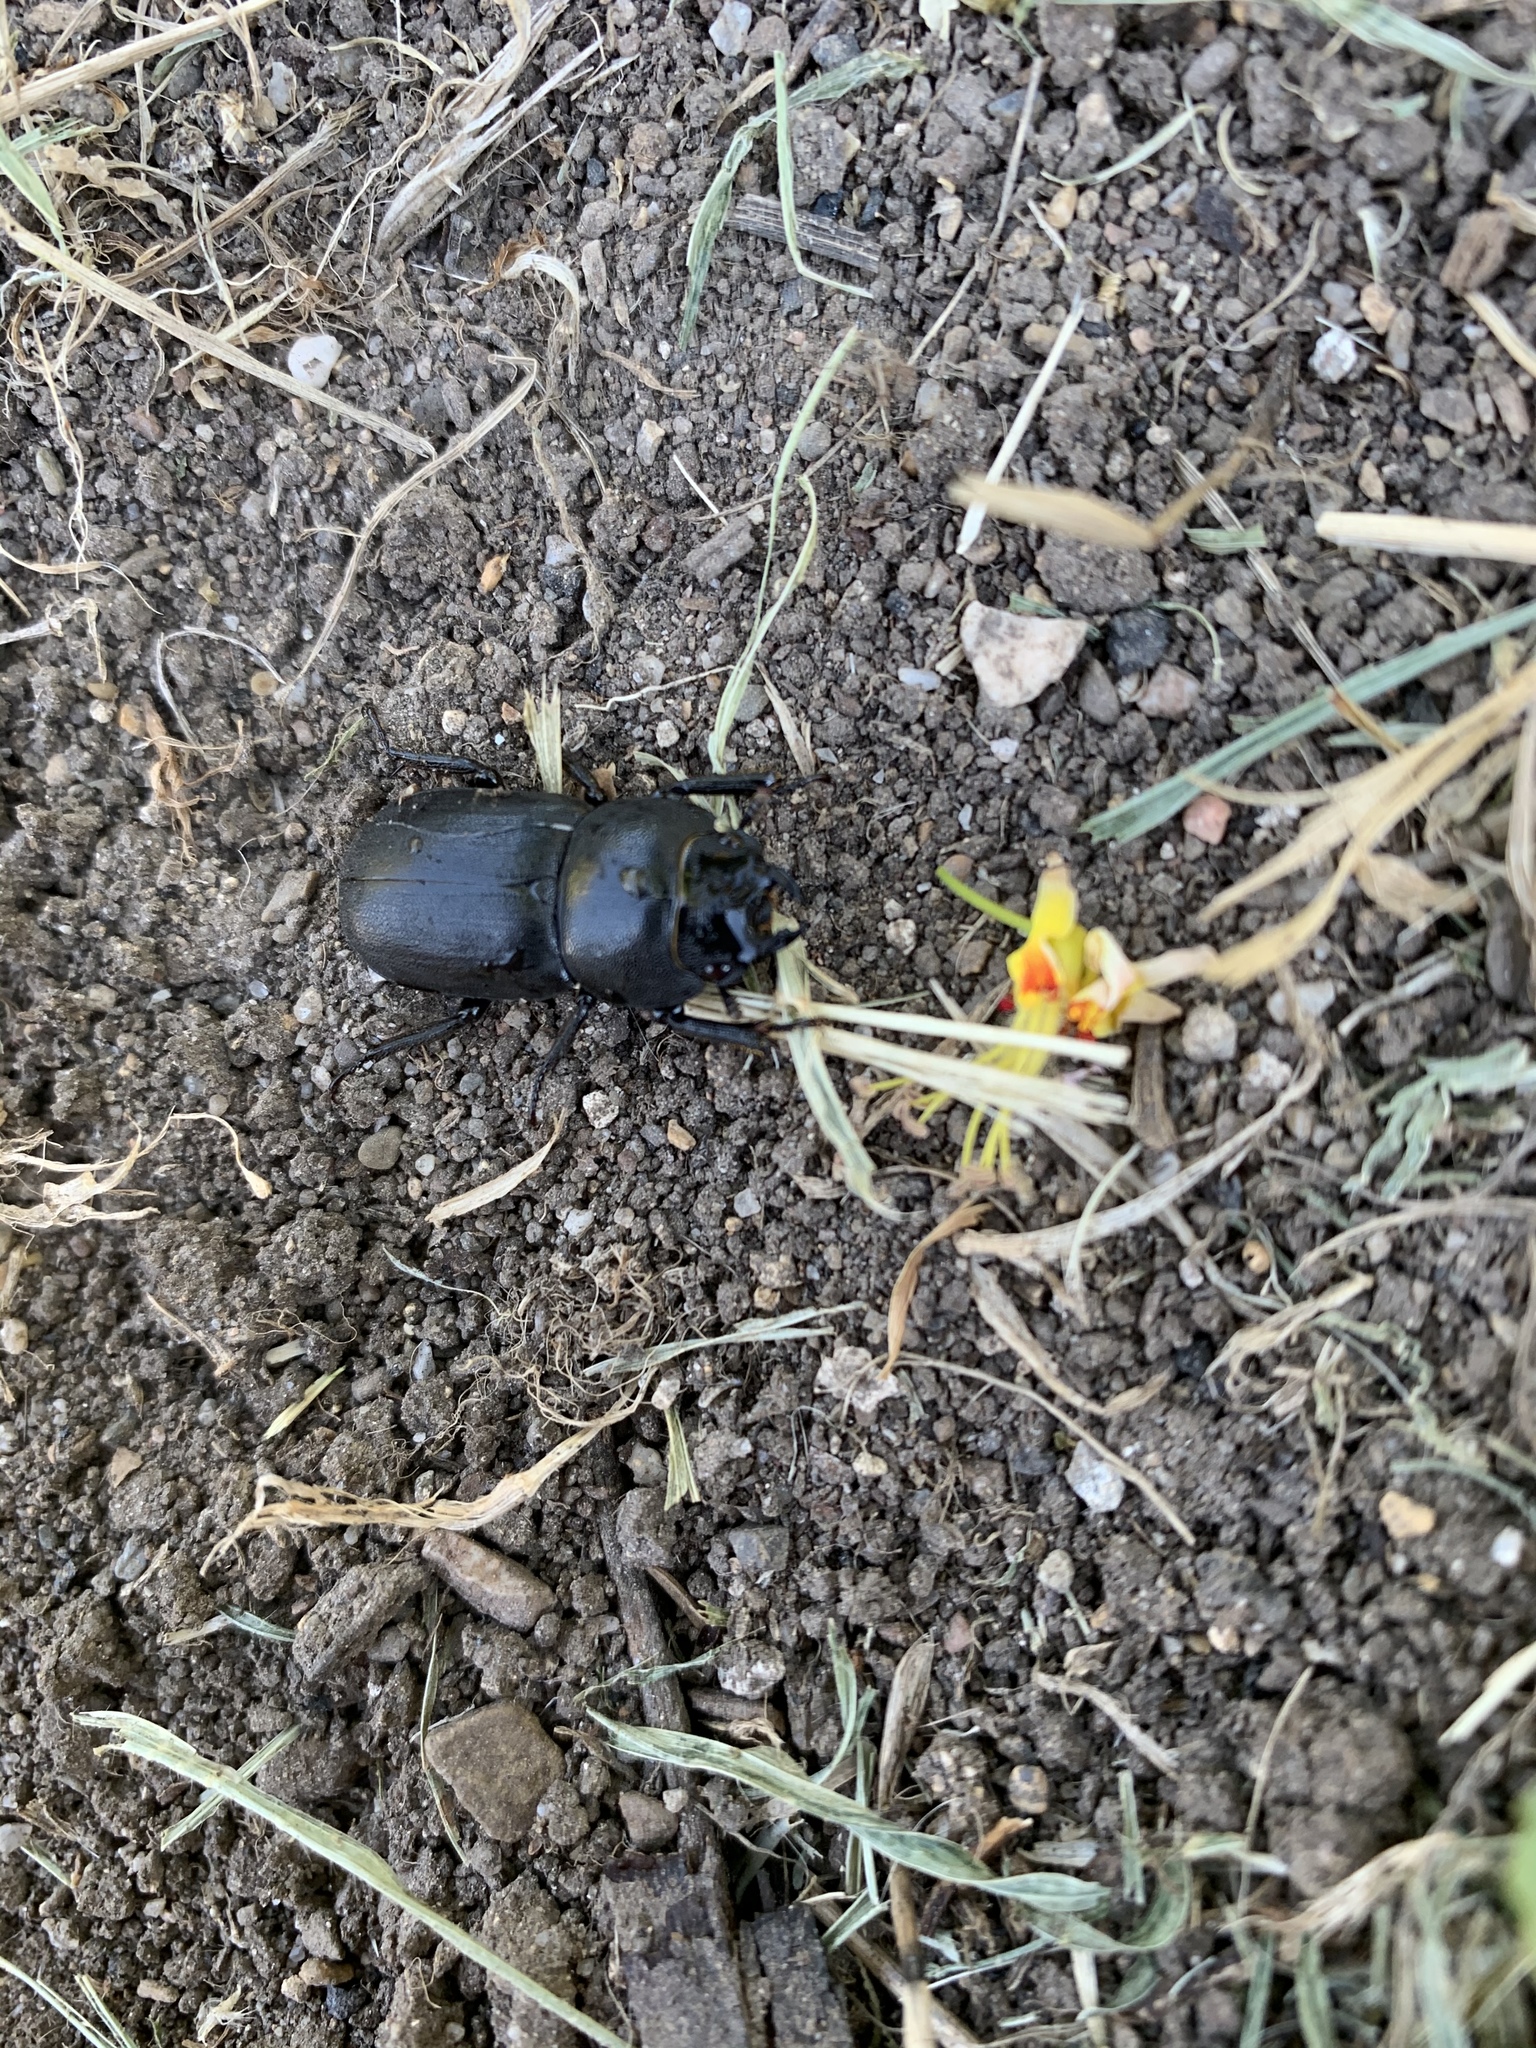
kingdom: Animalia
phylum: Arthropoda
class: Insecta
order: Coleoptera
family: Lucanidae
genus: Dorcus
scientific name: Dorcus parallelipipedus
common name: Lesser stag beetle
